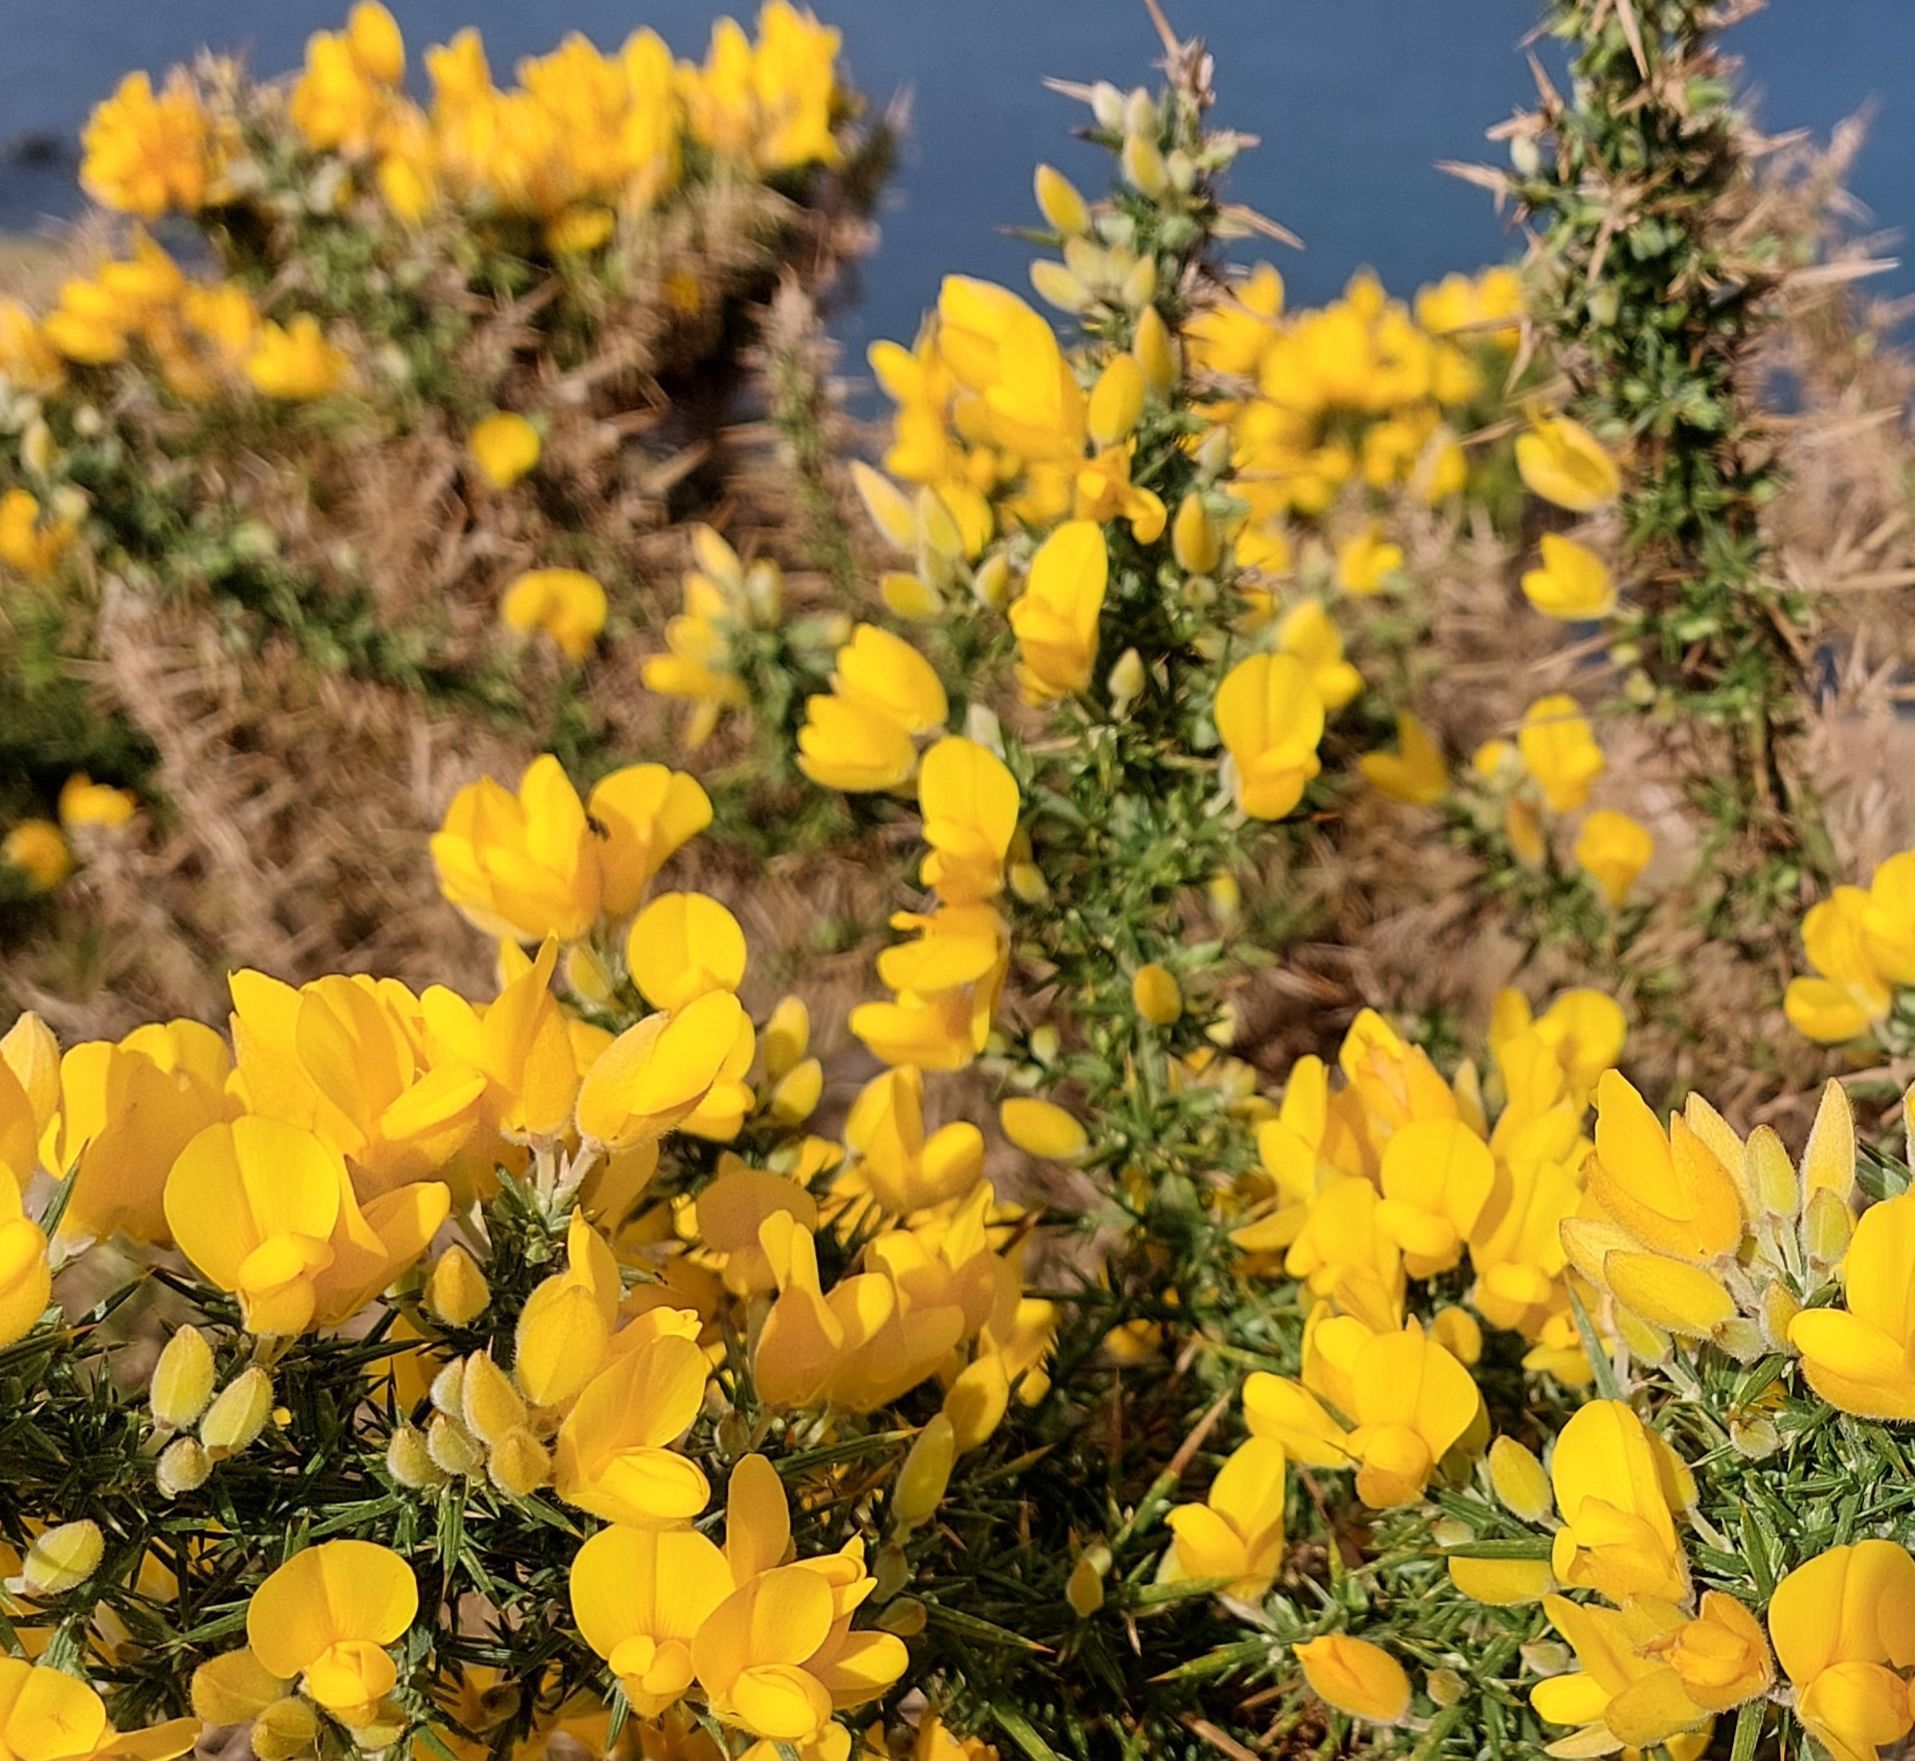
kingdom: Plantae
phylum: Tracheophyta
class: Magnoliopsida
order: Fabales
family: Fabaceae
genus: Ulex
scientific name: Ulex europaeus
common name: Common gorse
